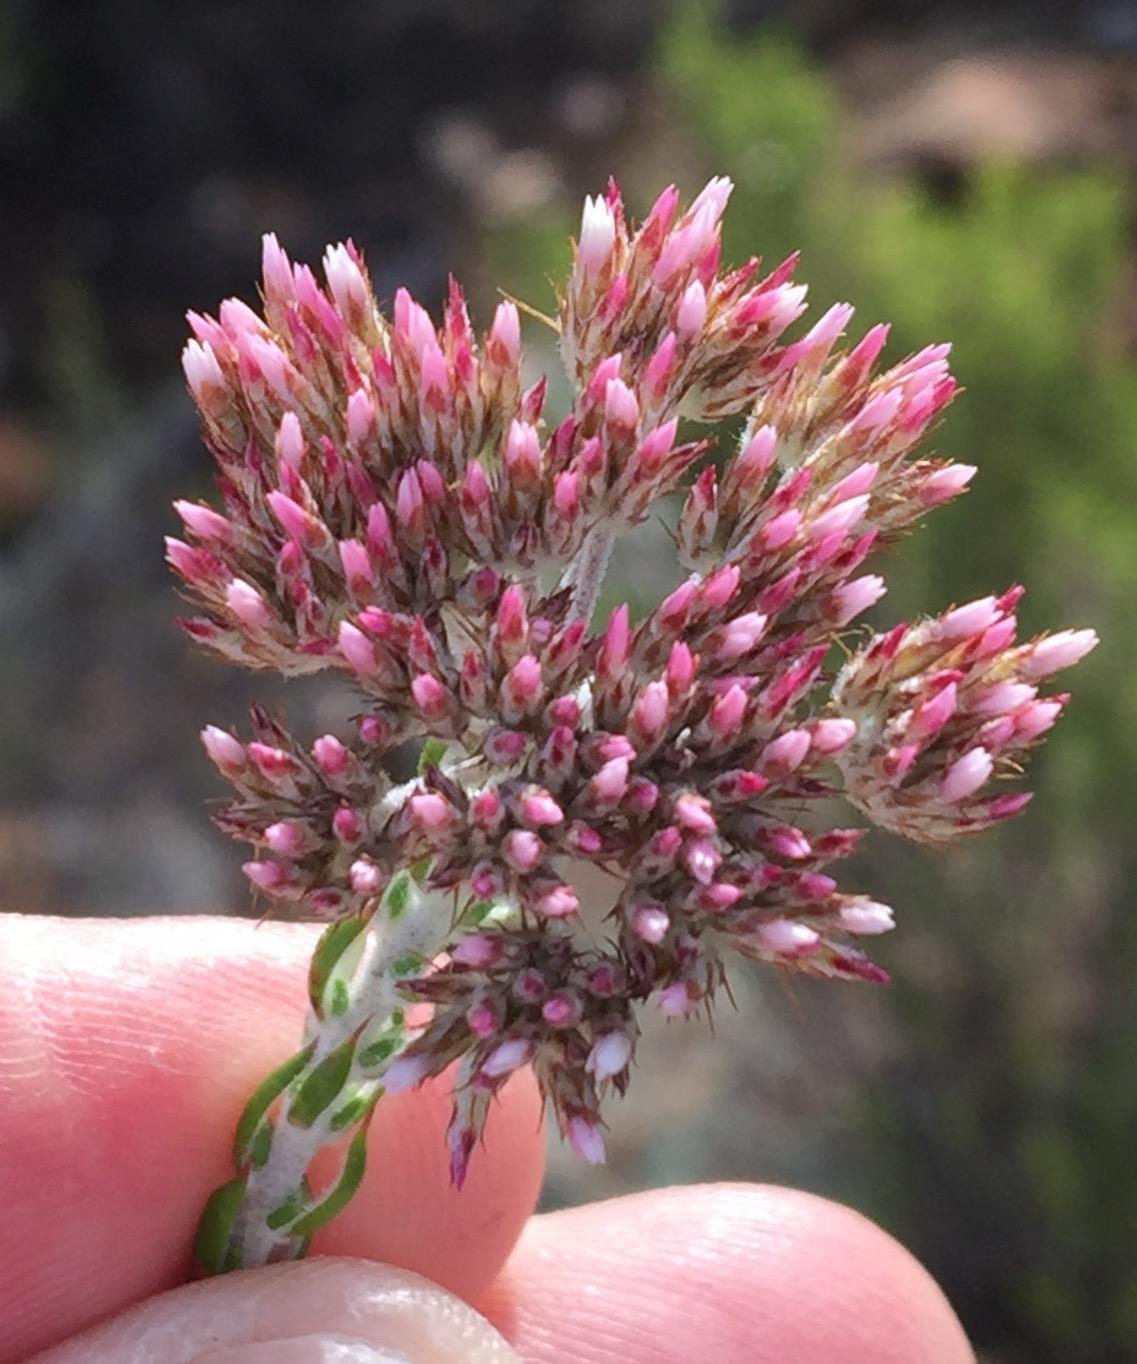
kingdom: Plantae
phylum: Tracheophyta
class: Magnoliopsida
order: Asterales
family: Asteraceae
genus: Metalasia
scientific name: Metalasia pulcherrima
